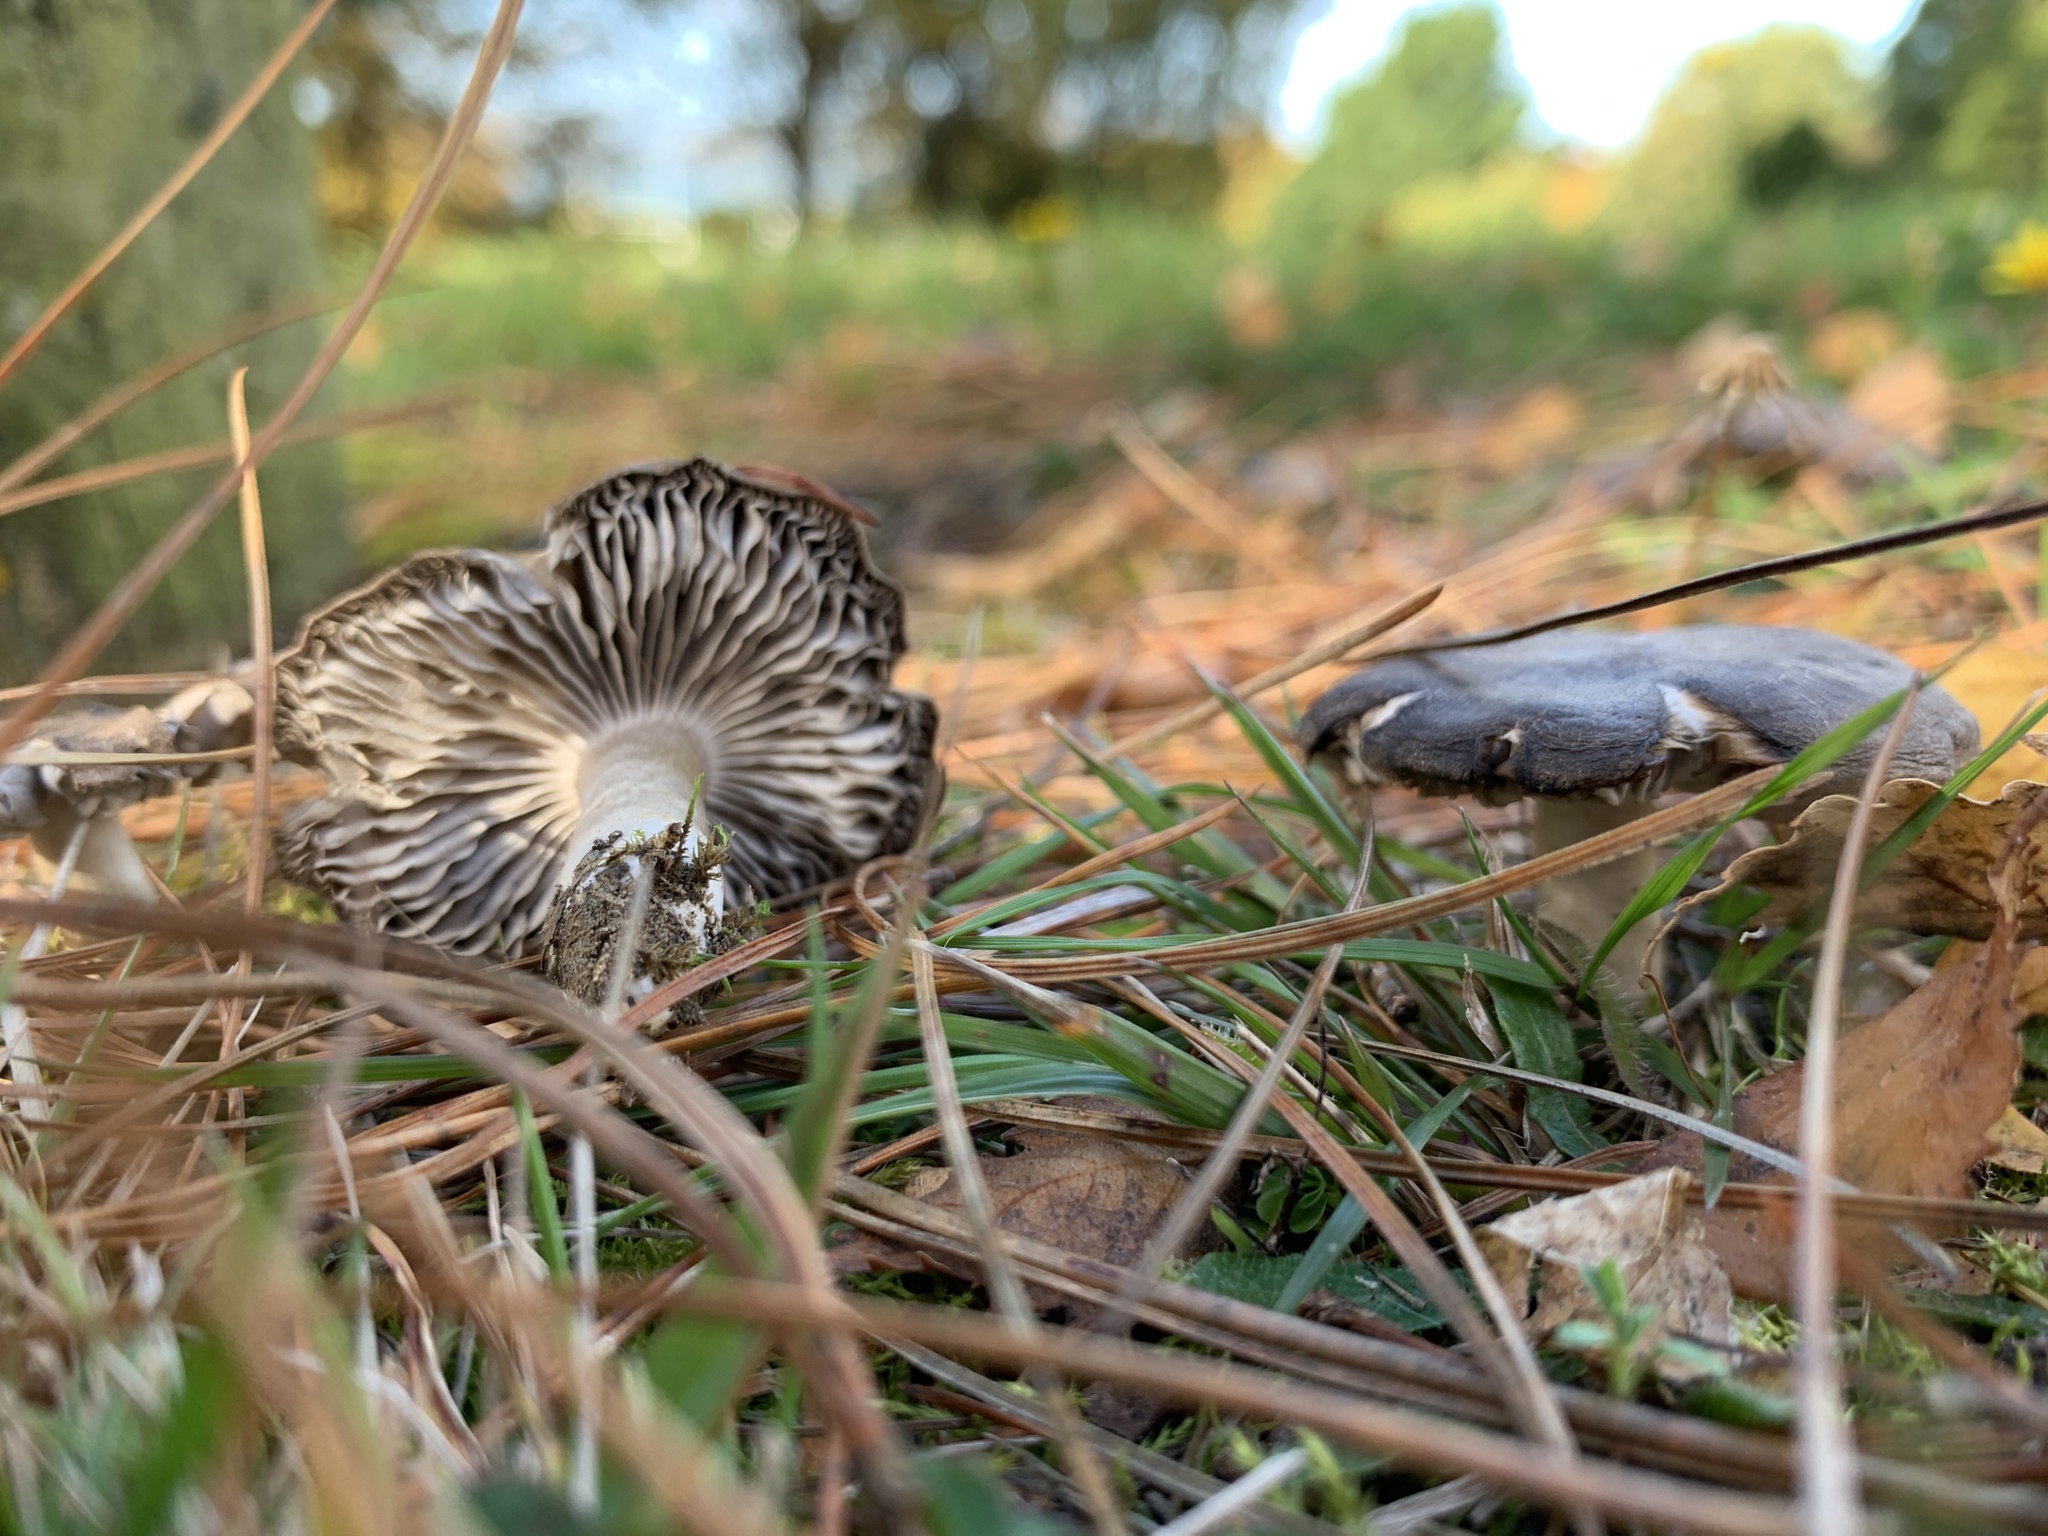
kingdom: Fungi
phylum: Basidiomycota
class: Agaricomycetes
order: Agaricales
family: Tricholomataceae
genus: Tricholoma
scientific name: Tricholoma terreum
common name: Grey knight
